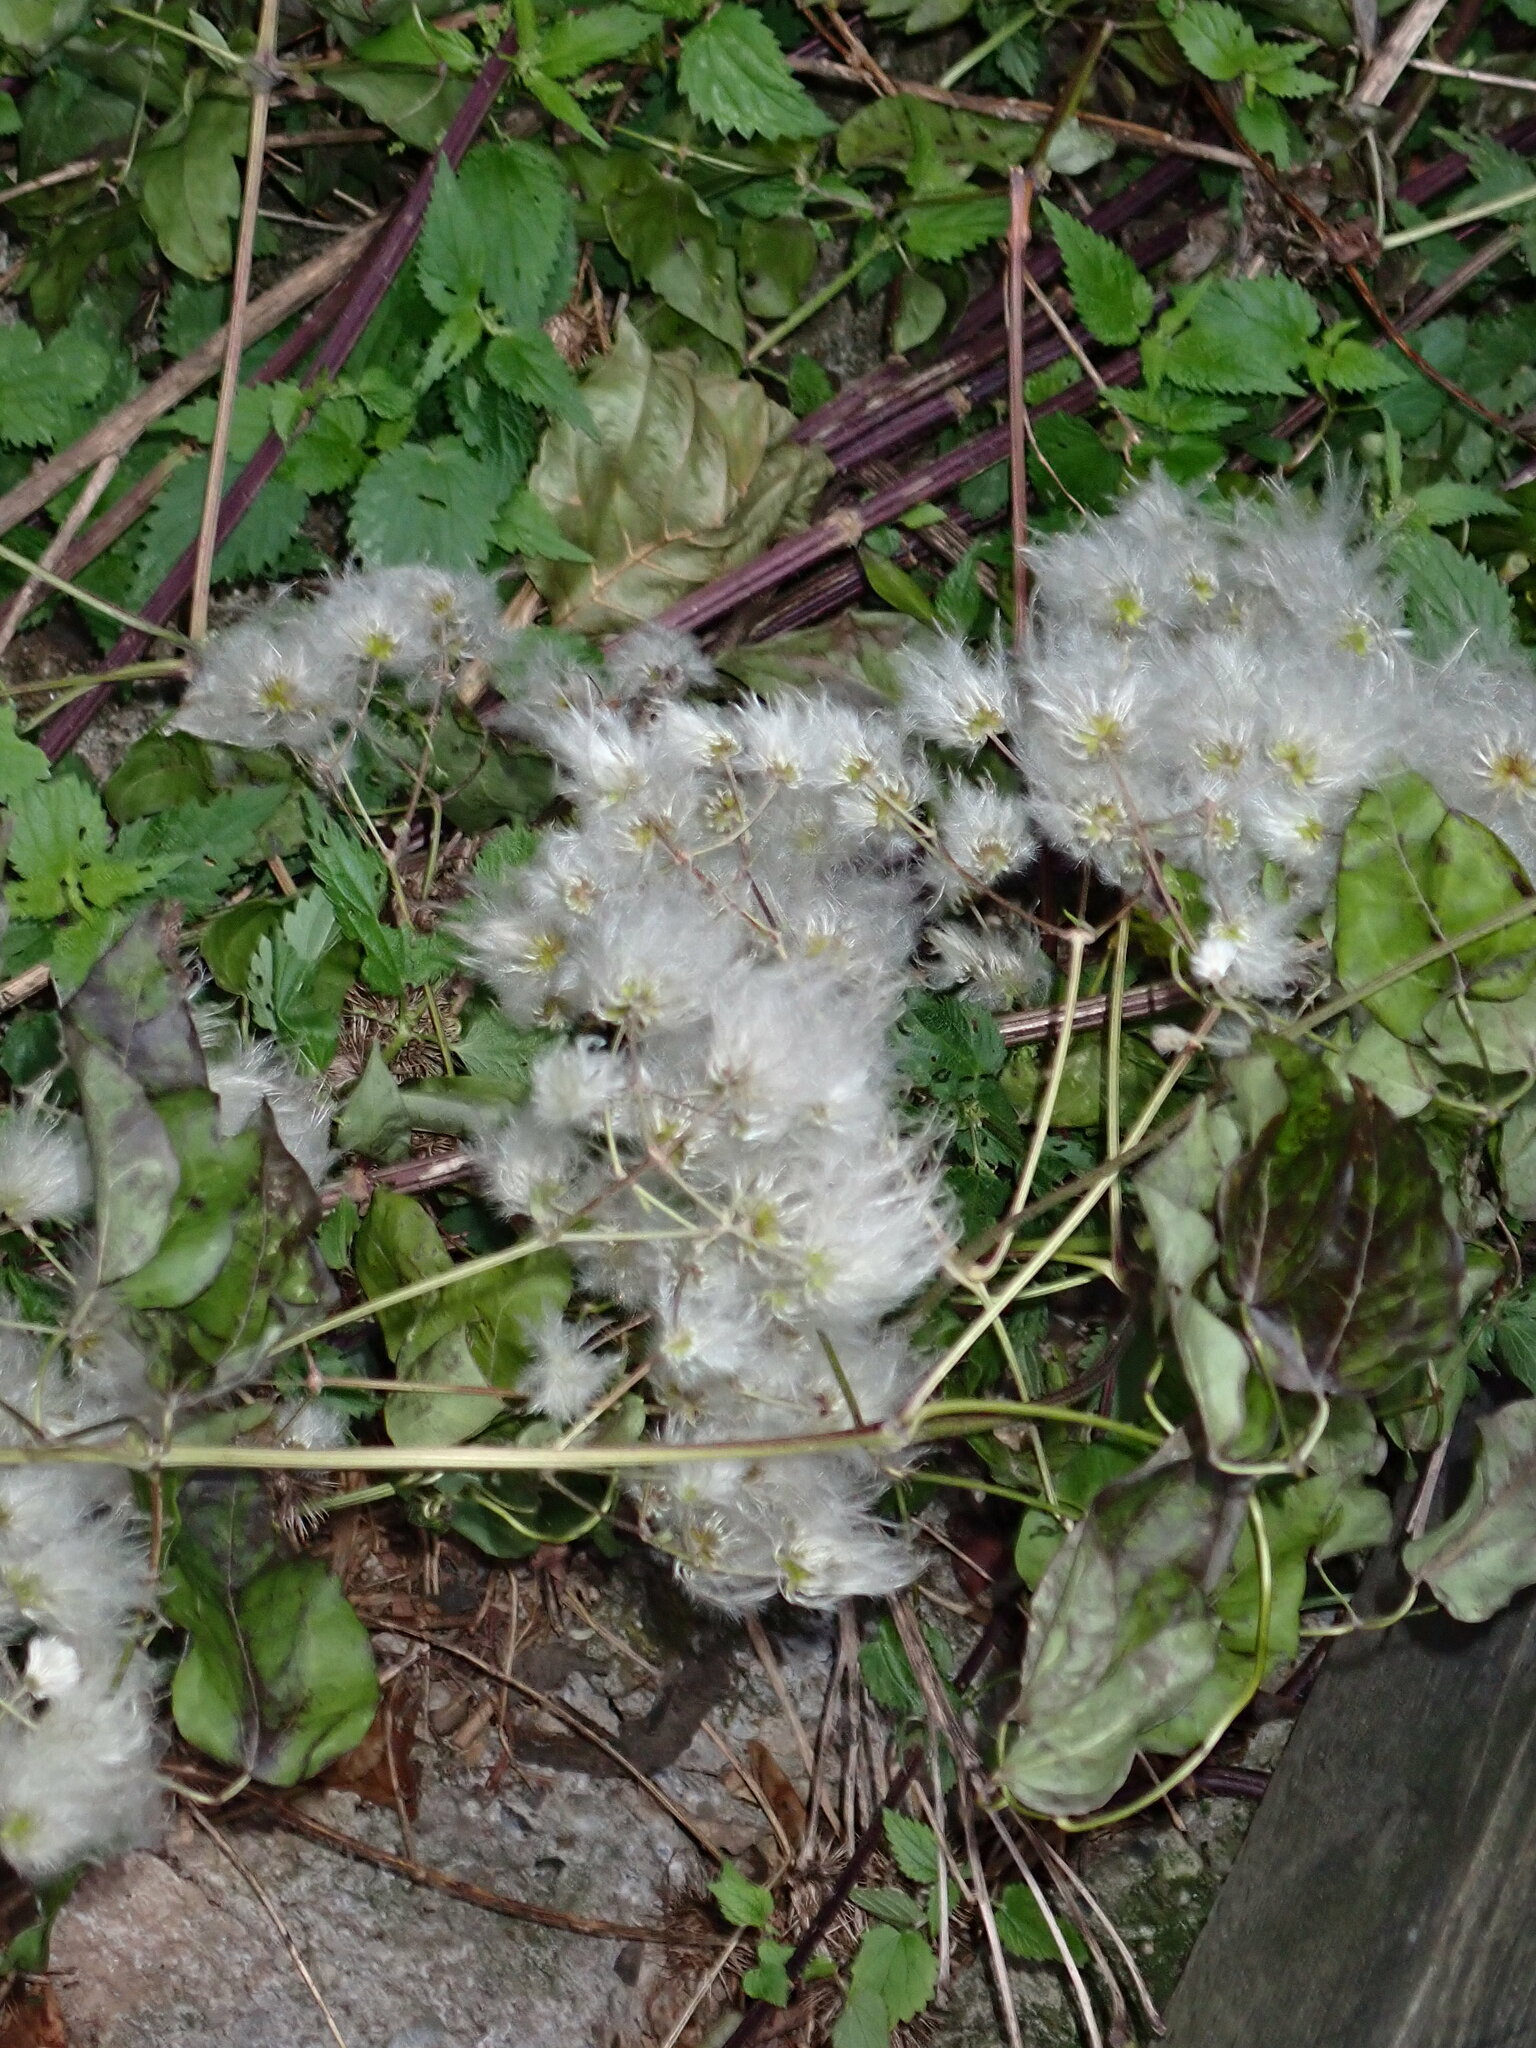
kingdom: Plantae
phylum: Tracheophyta
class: Magnoliopsida
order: Ranunculales
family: Ranunculaceae
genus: Clematis
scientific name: Clematis vitalba
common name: Evergreen clematis
